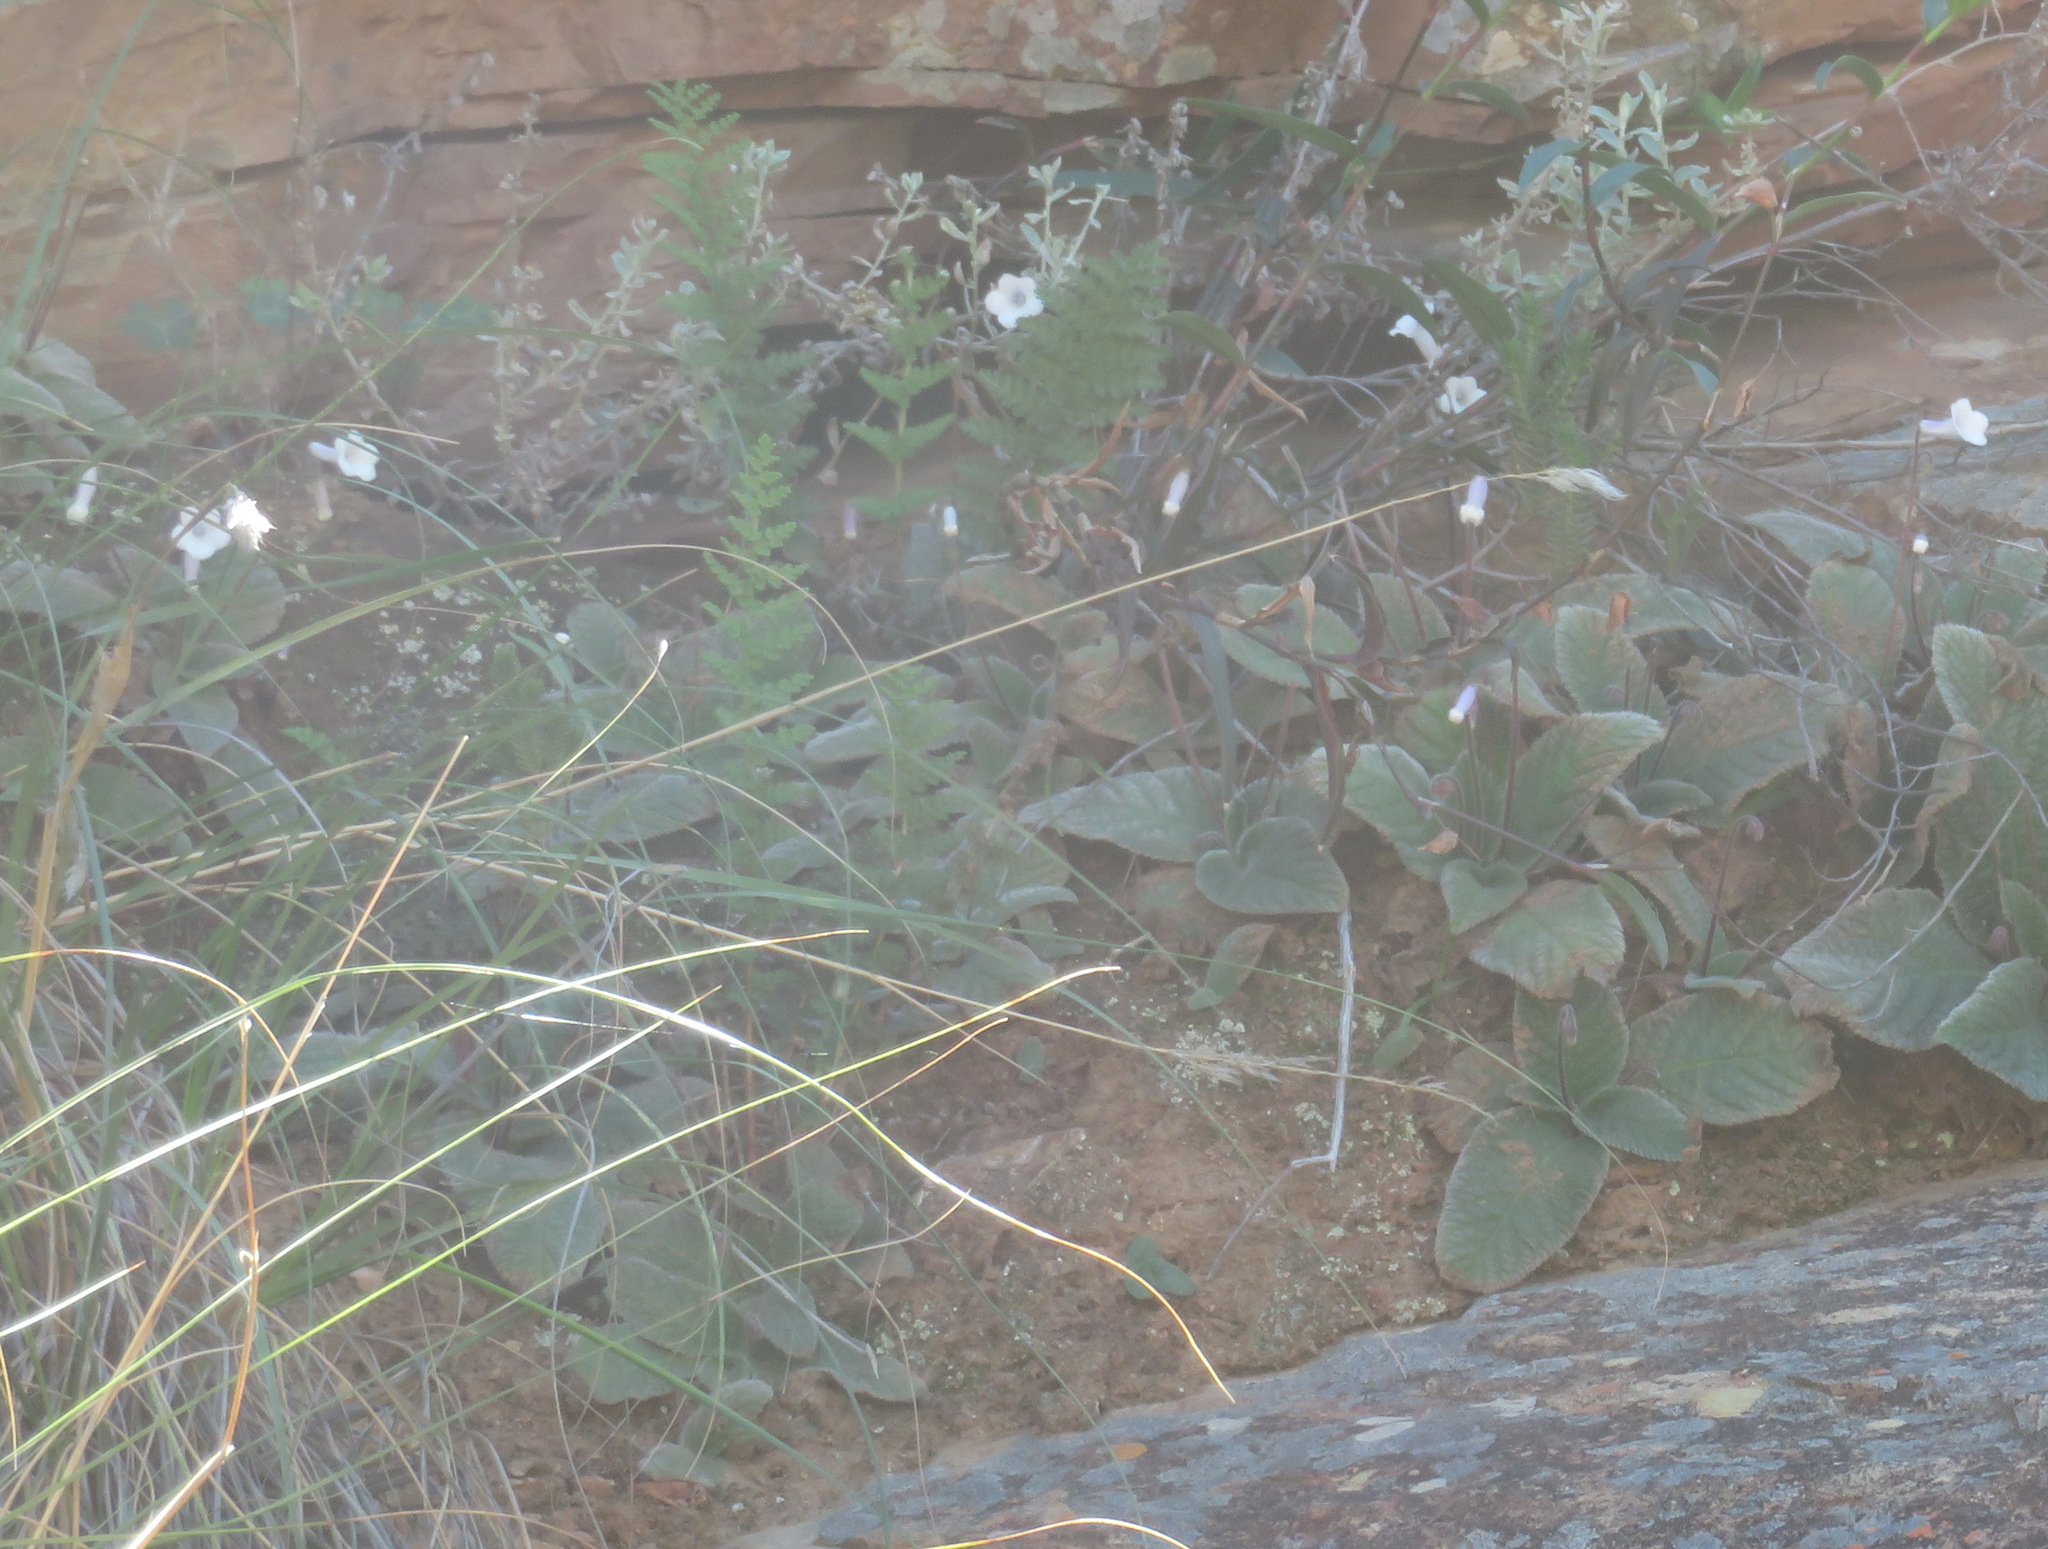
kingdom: Plantae
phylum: Tracheophyta
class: Magnoliopsida
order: Lamiales
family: Gesneriaceae
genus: Streptocarpus
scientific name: Streptocarpus meyeri
